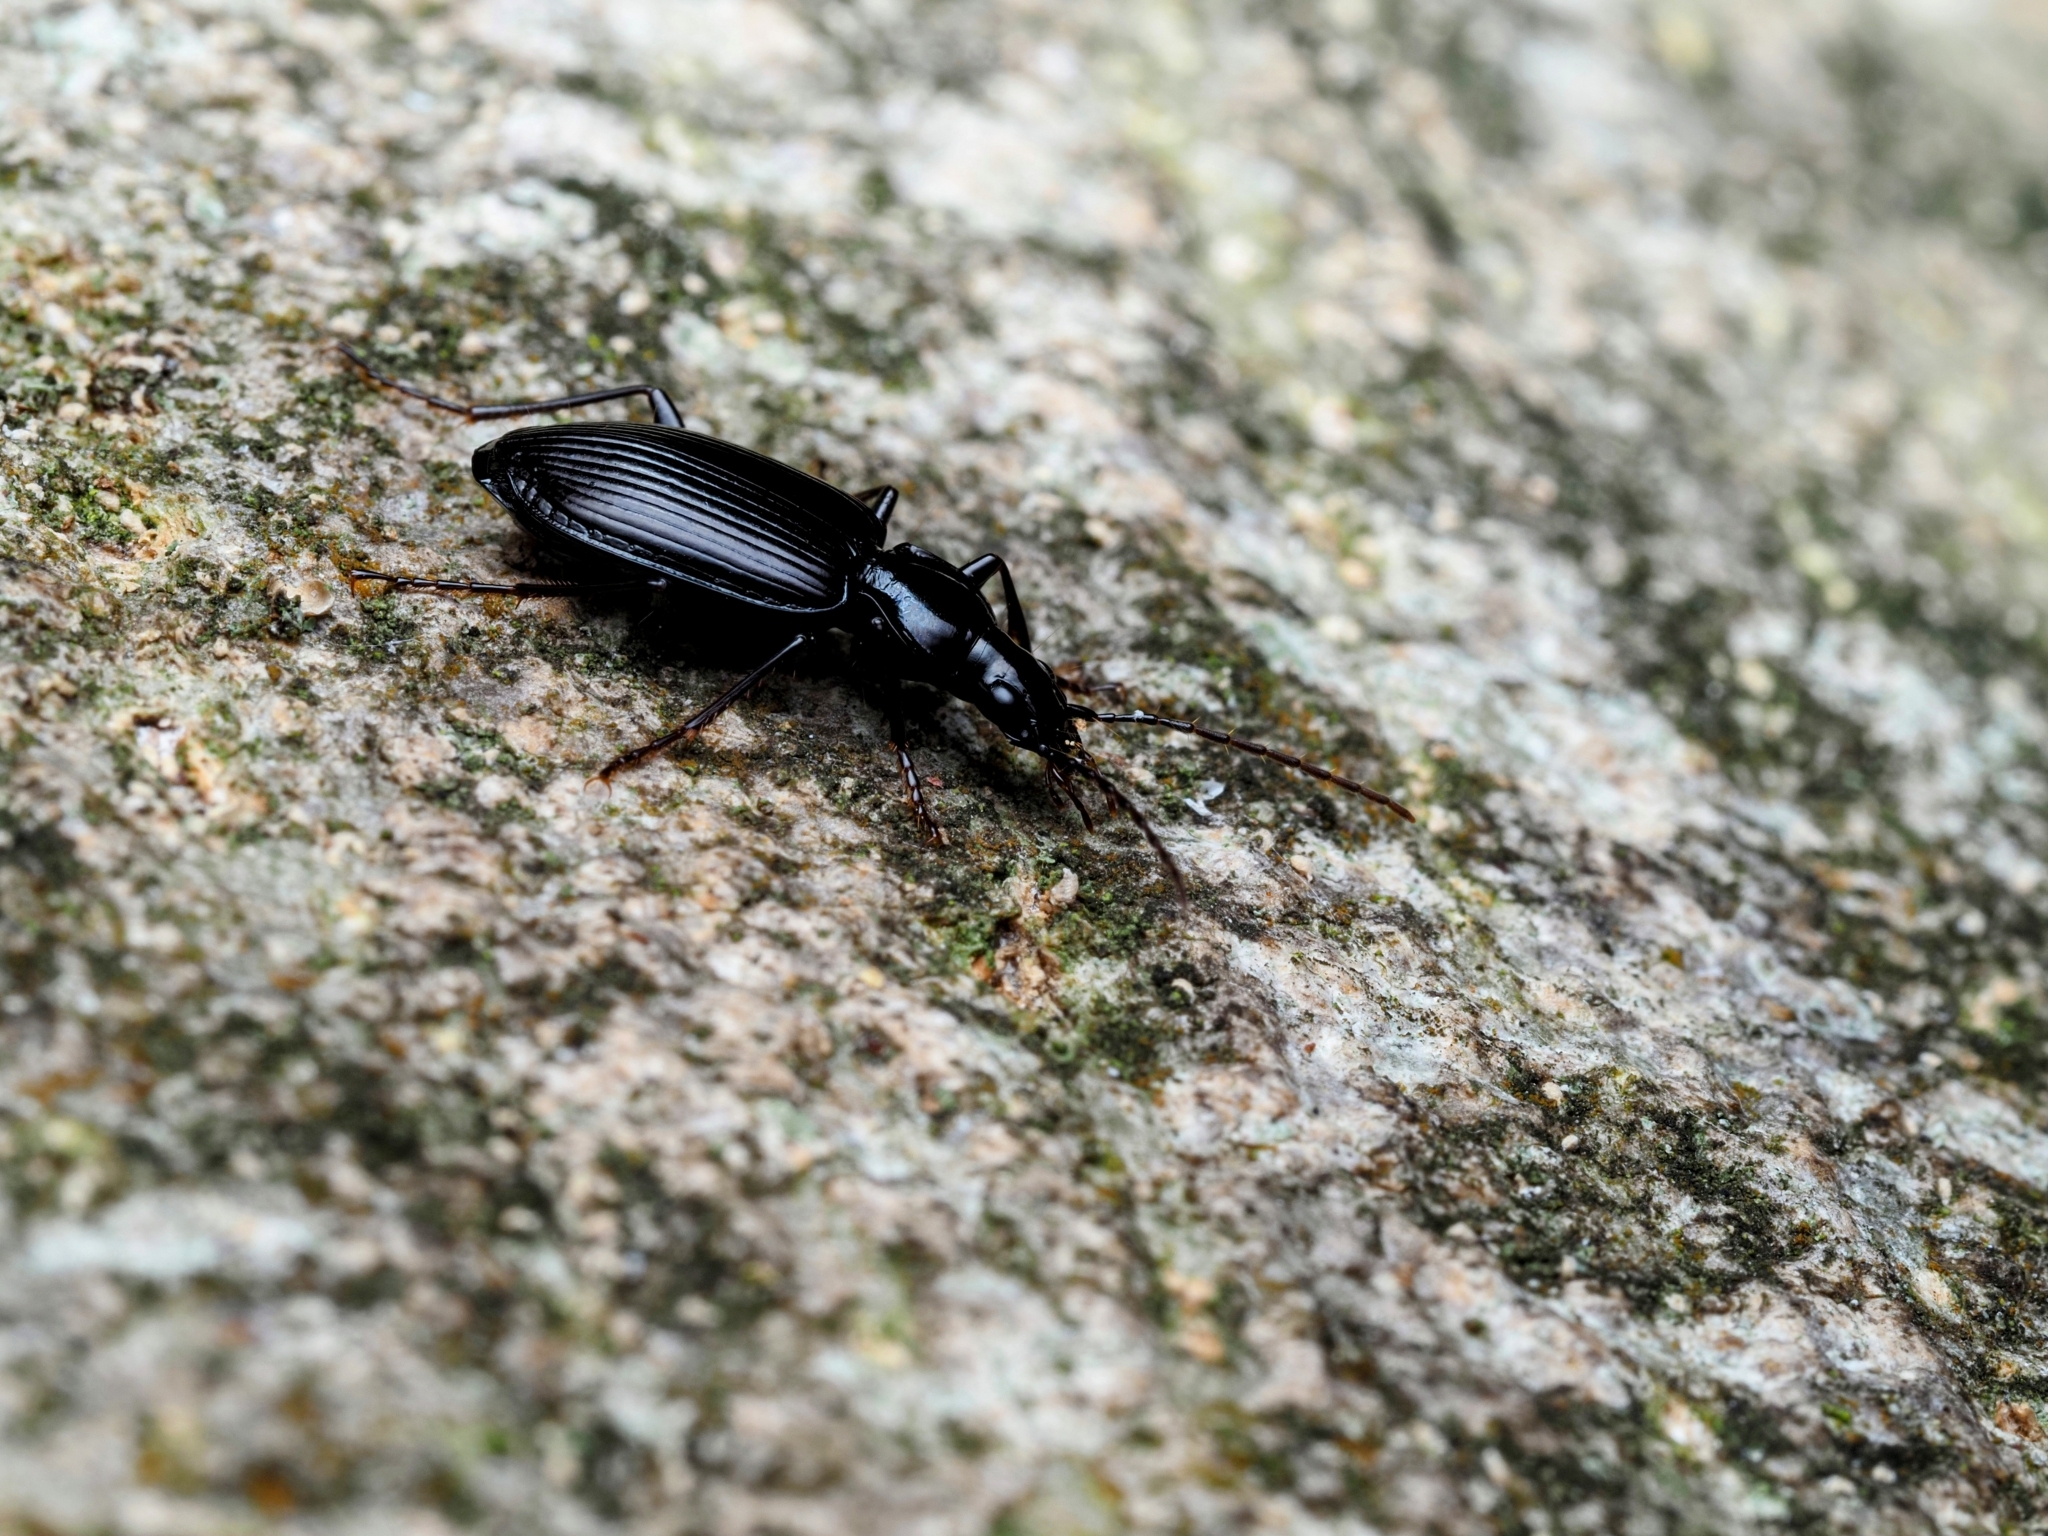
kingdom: Animalia
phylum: Arthropoda
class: Insecta
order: Coleoptera
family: Carabidae
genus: Platynus
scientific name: Platynus assimilis
